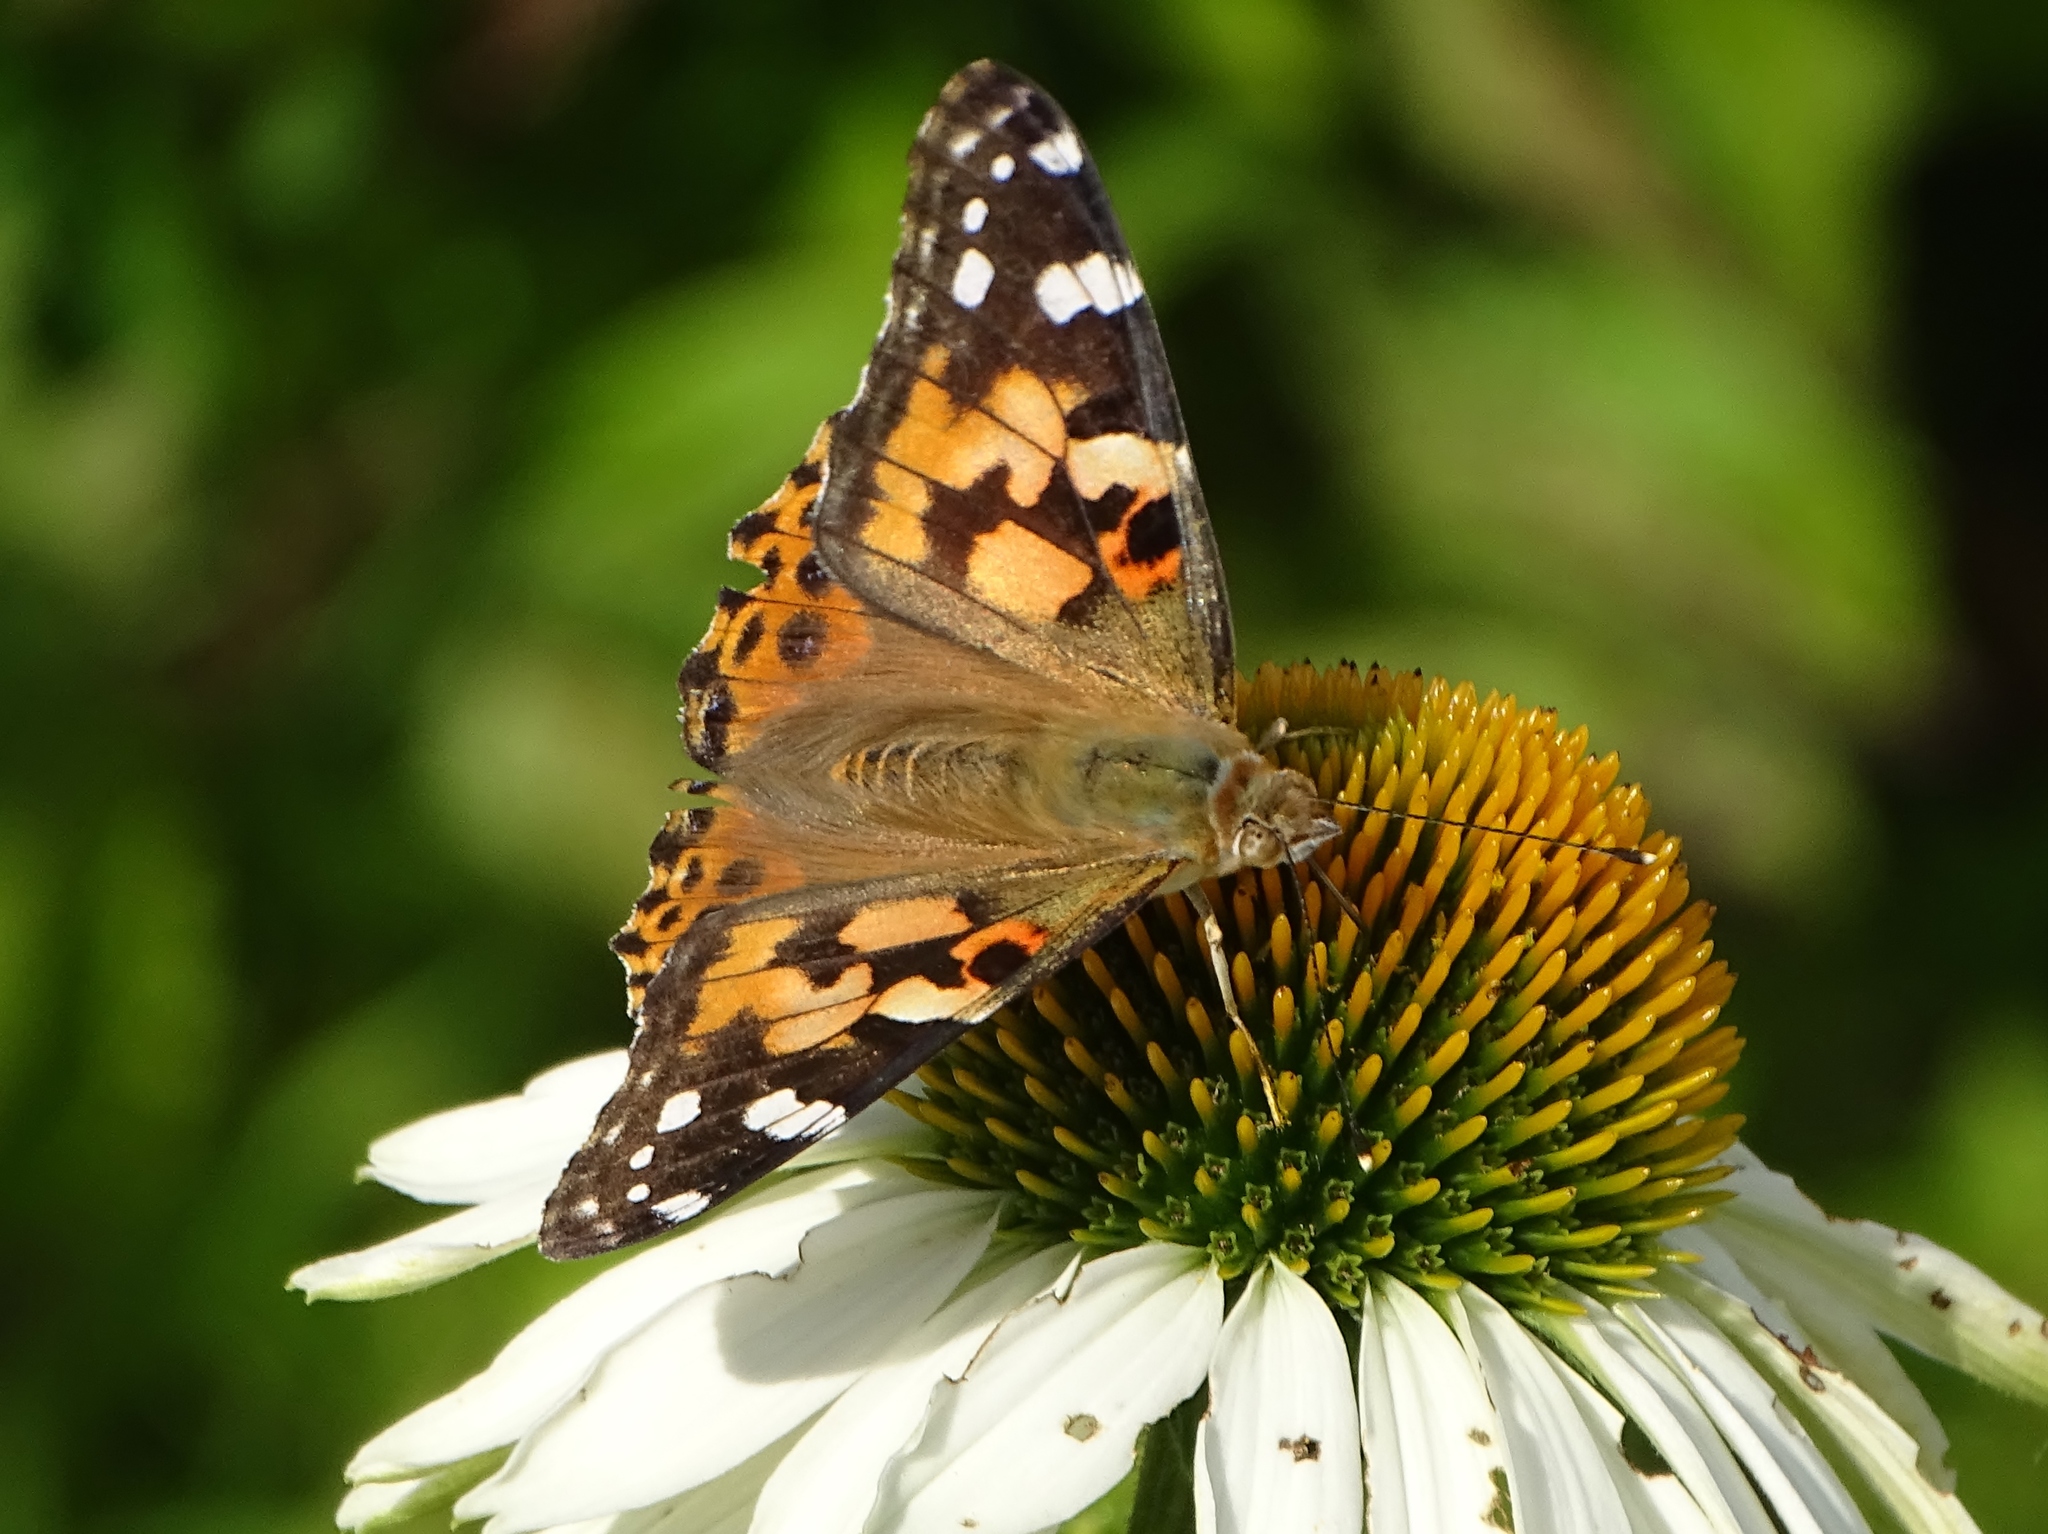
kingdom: Animalia
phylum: Arthropoda
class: Insecta
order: Lepidoptera
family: Nymphalidae
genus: Vanessa
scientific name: Vanessa cardui
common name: Painted lady
